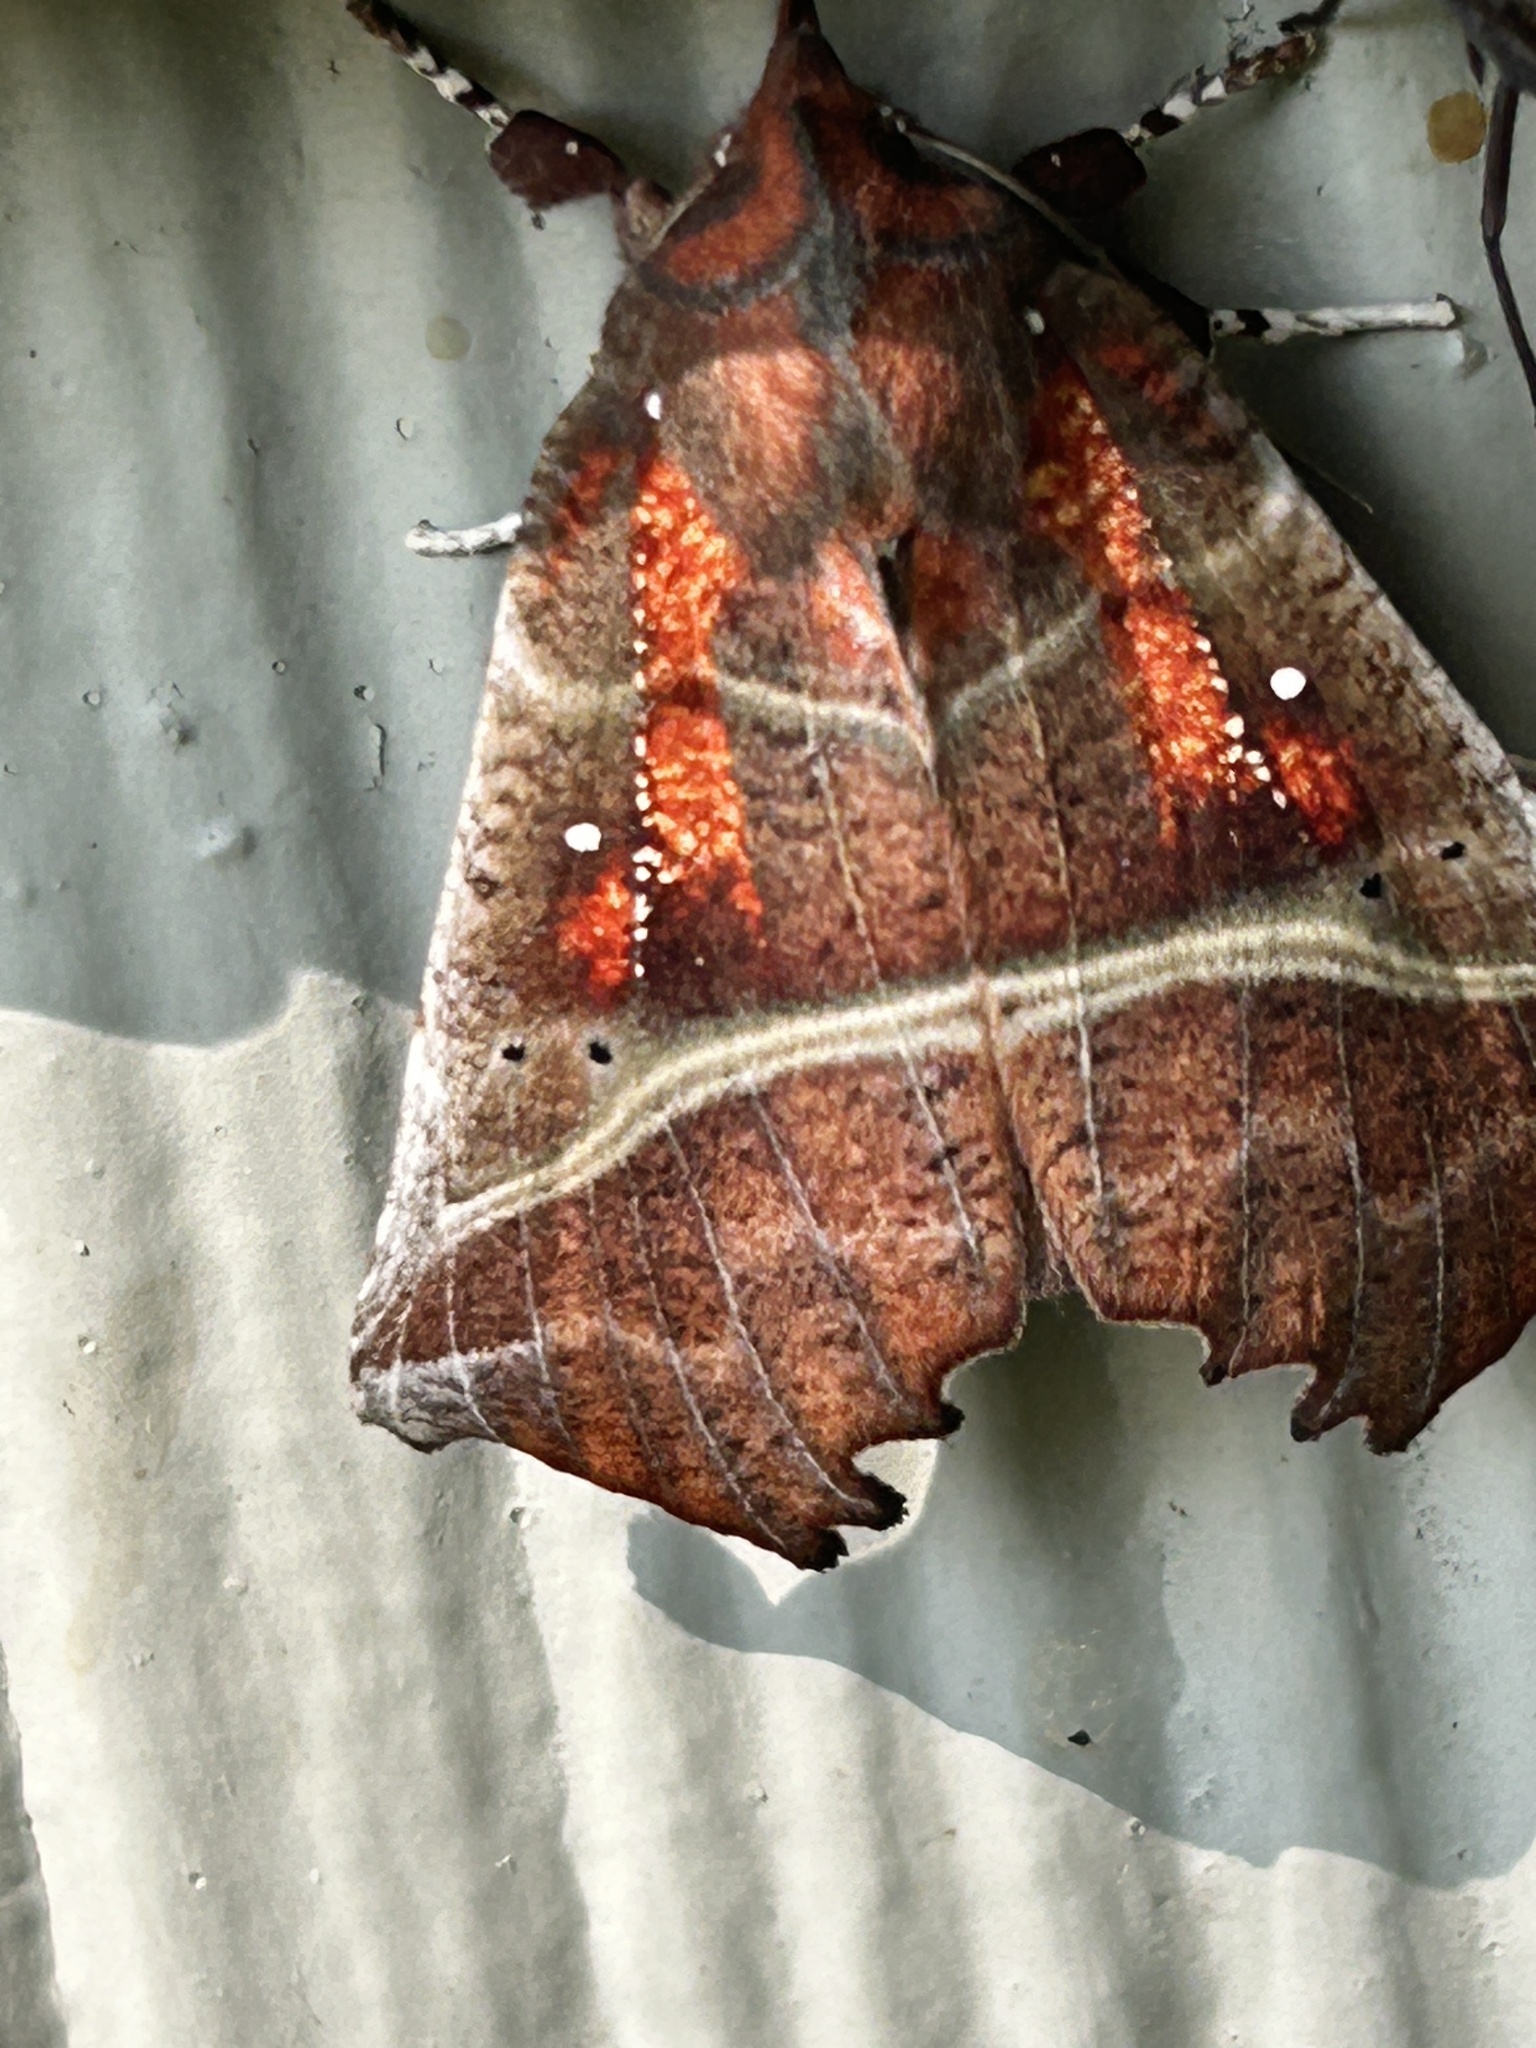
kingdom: Animalia
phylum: Arthropoda
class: Insecta
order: Lepidoptera
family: Erebidae
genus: Scoliopteryx
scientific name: Scoliopteryx libatrix
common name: Herald
